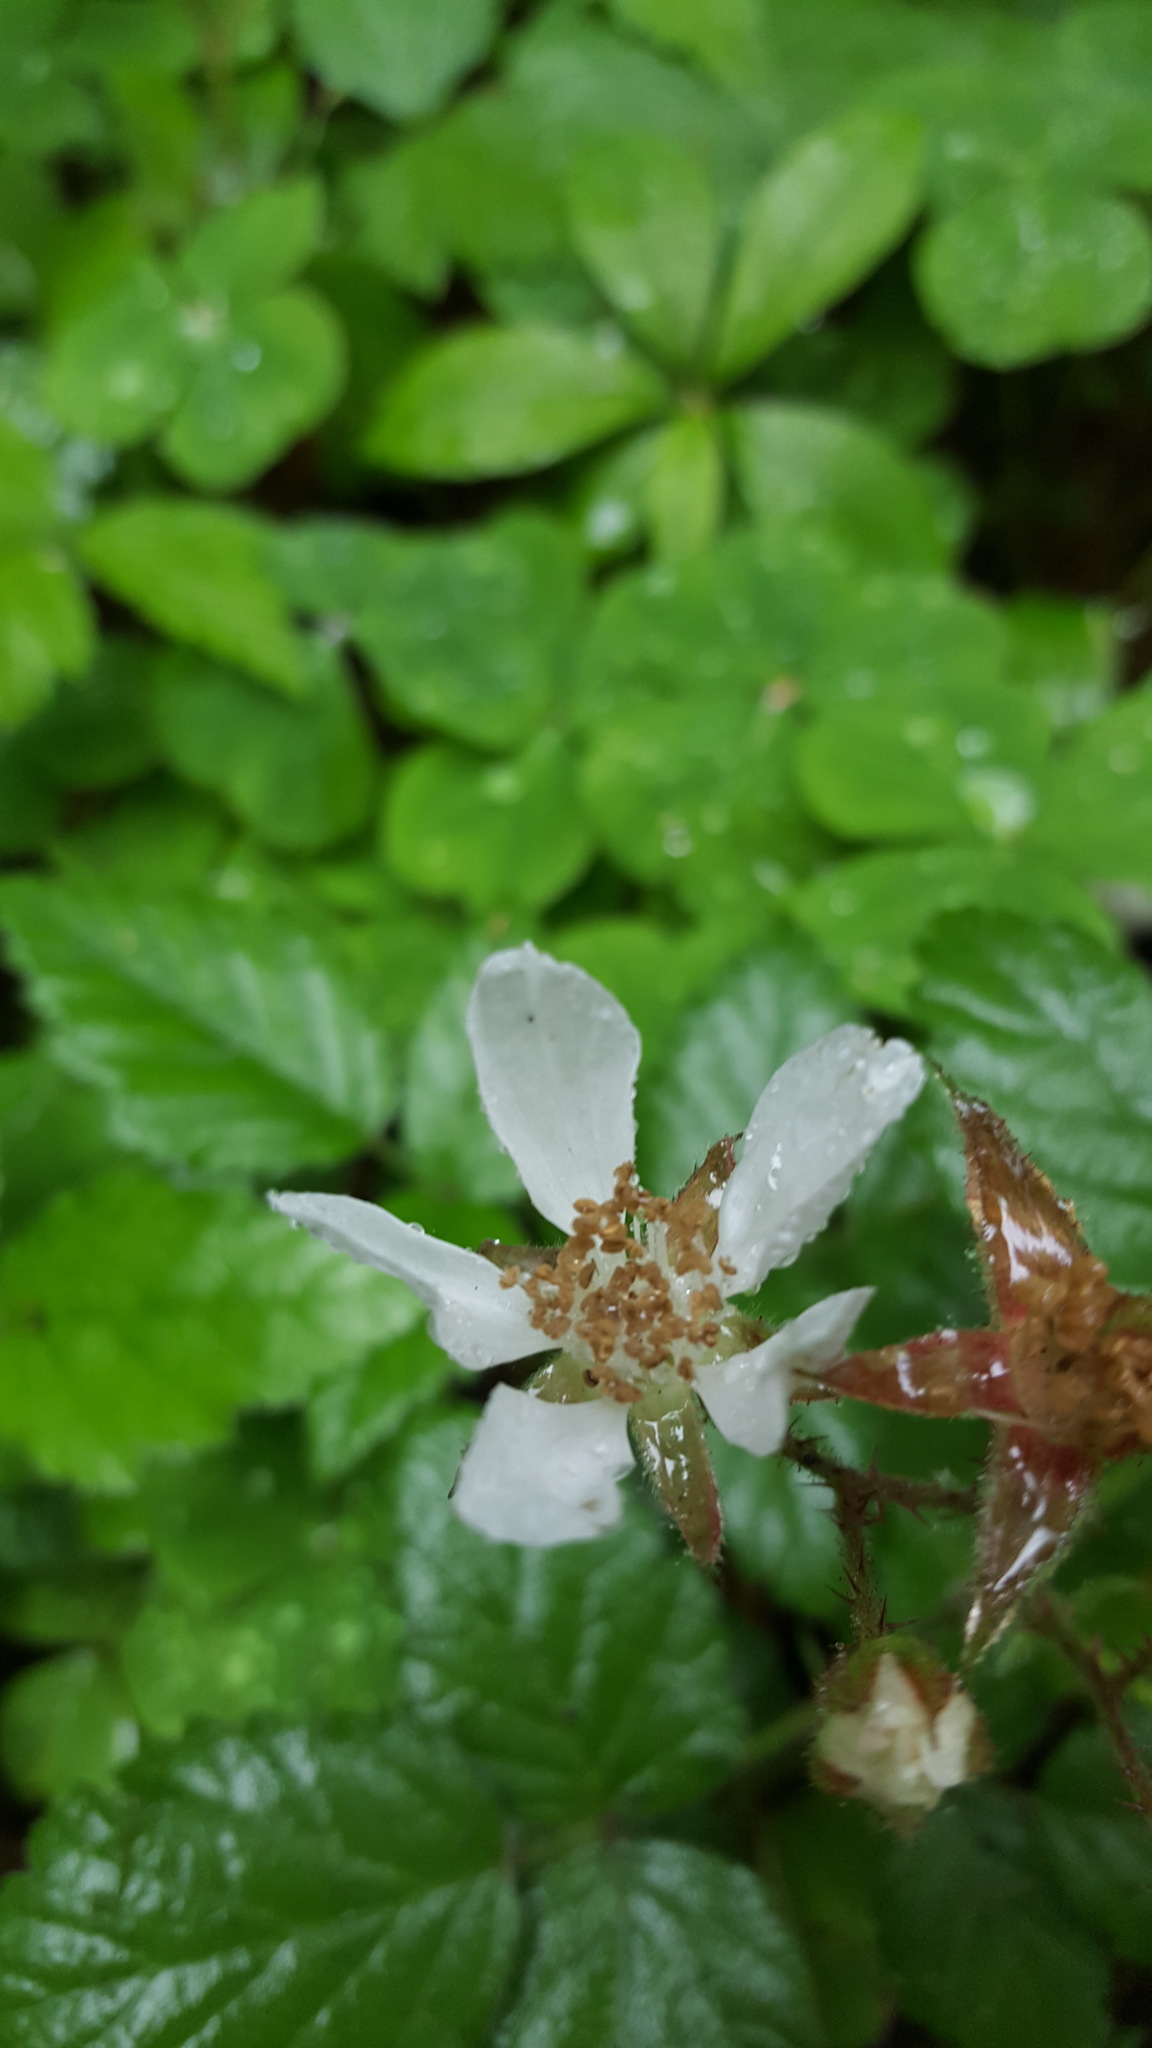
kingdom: Plantae
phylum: Tracheophyta
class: Magnoliopsida
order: Rosales
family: Rosaceae
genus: Rubus
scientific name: Rubus ursinus
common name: Pacific blackberry
